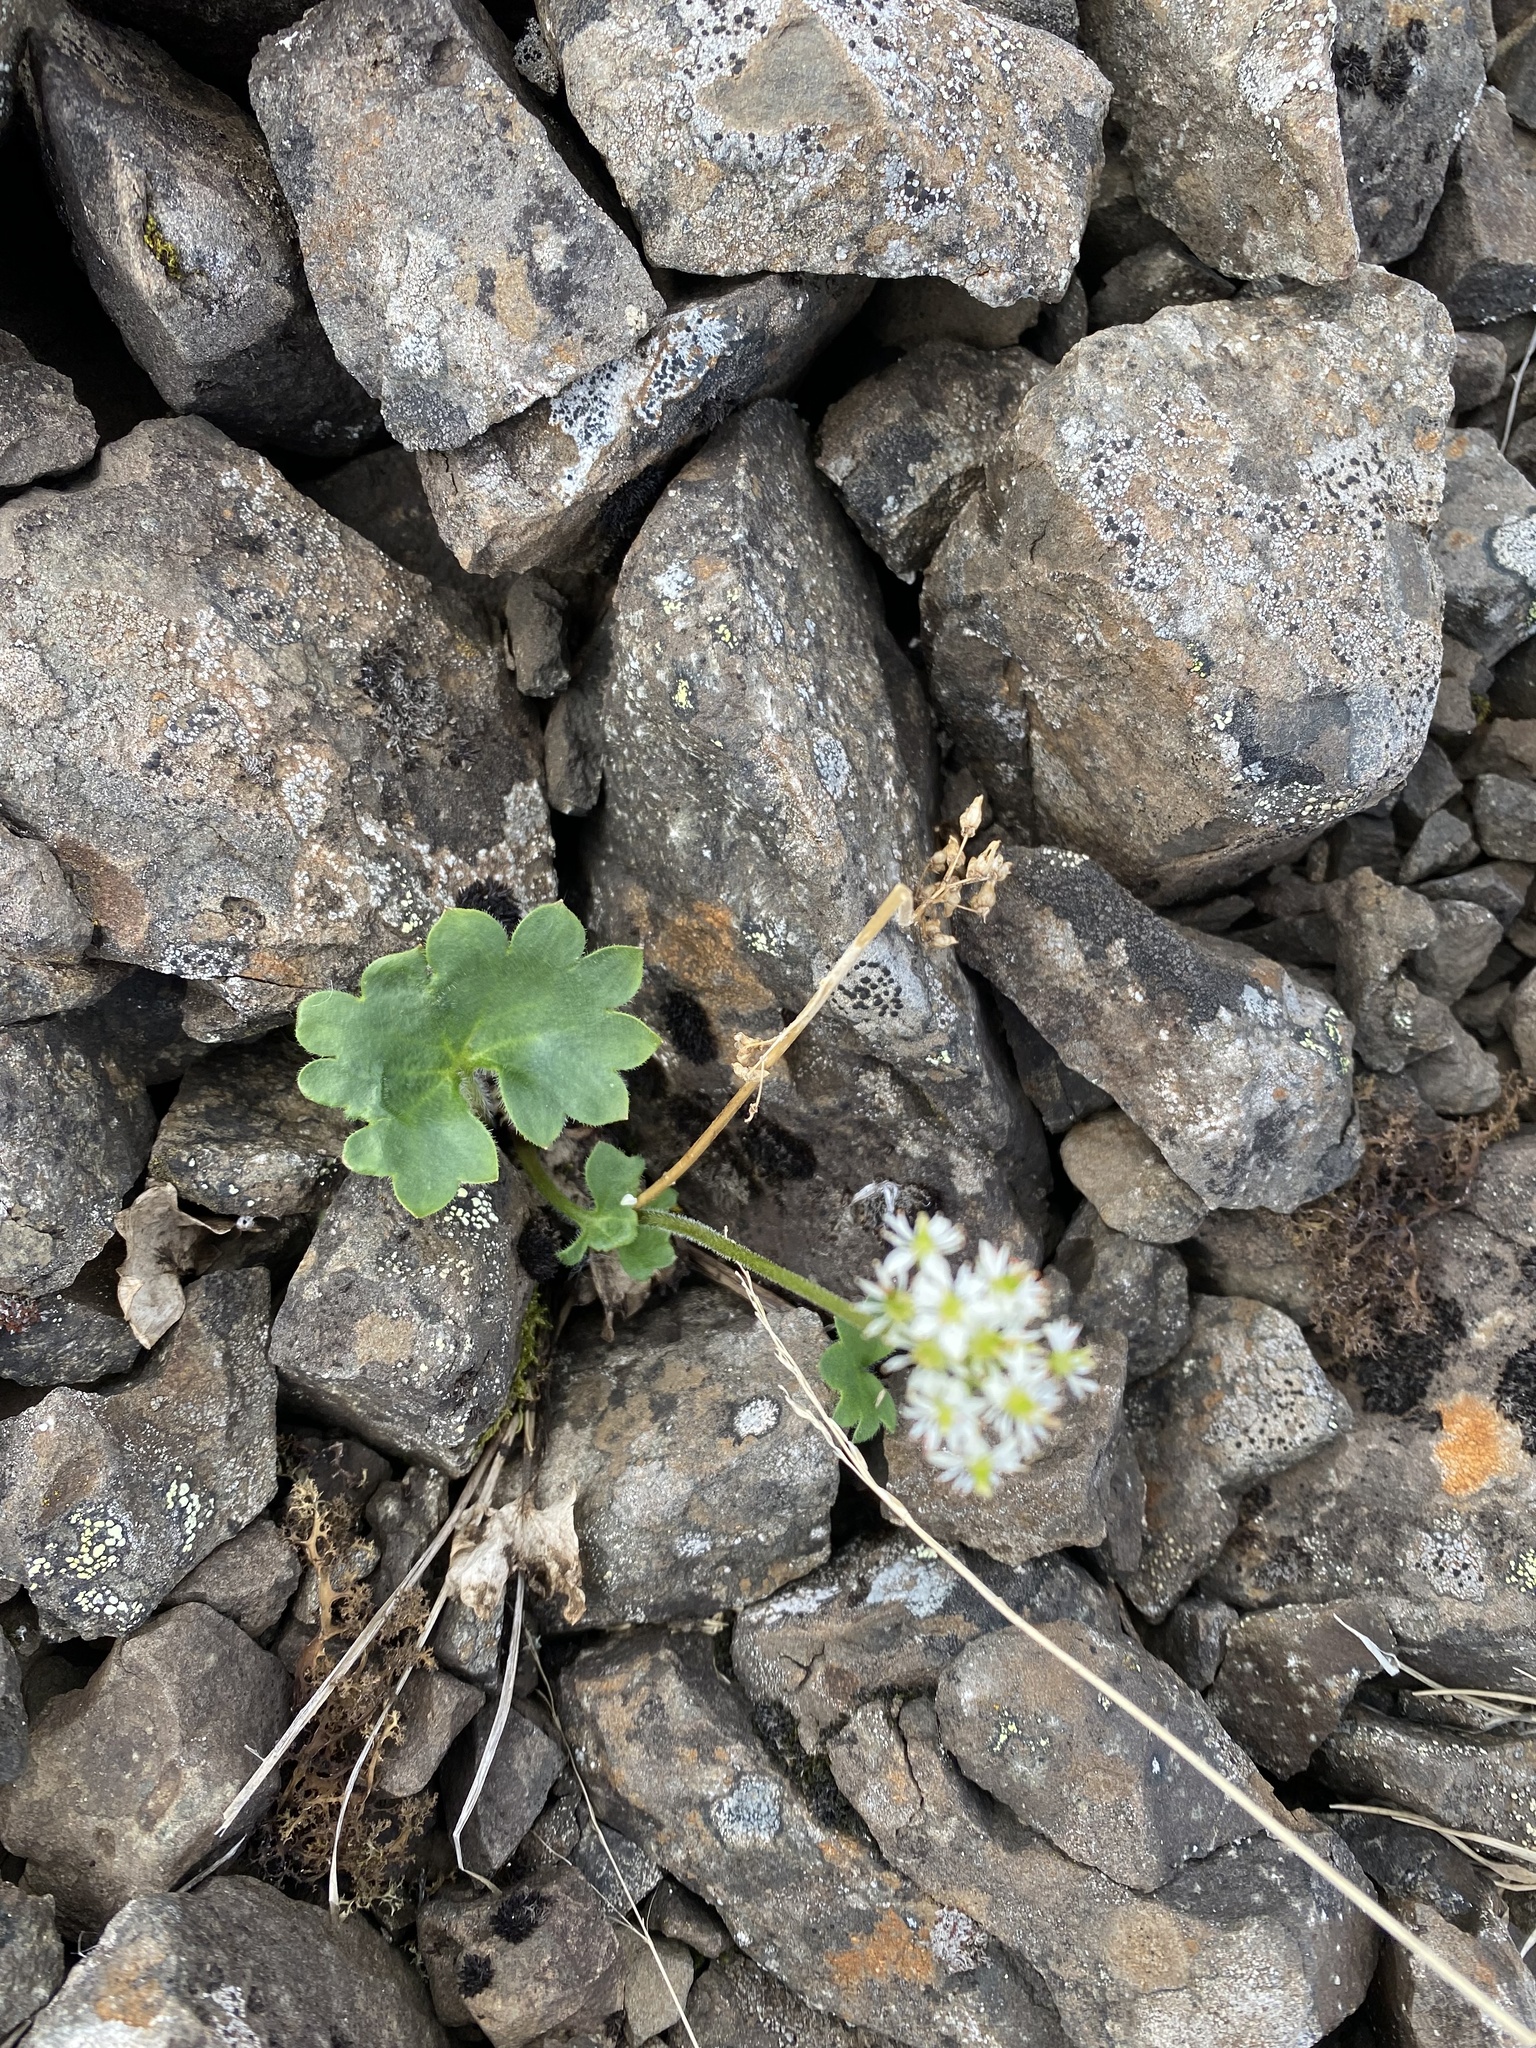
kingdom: Plantae
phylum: Tracheophyta
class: Magnoliopsida
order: Saxifragales
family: Saxifragaceae
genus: Micranthes
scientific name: Micranthes nelsoniana
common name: Nelson's saxifrage
